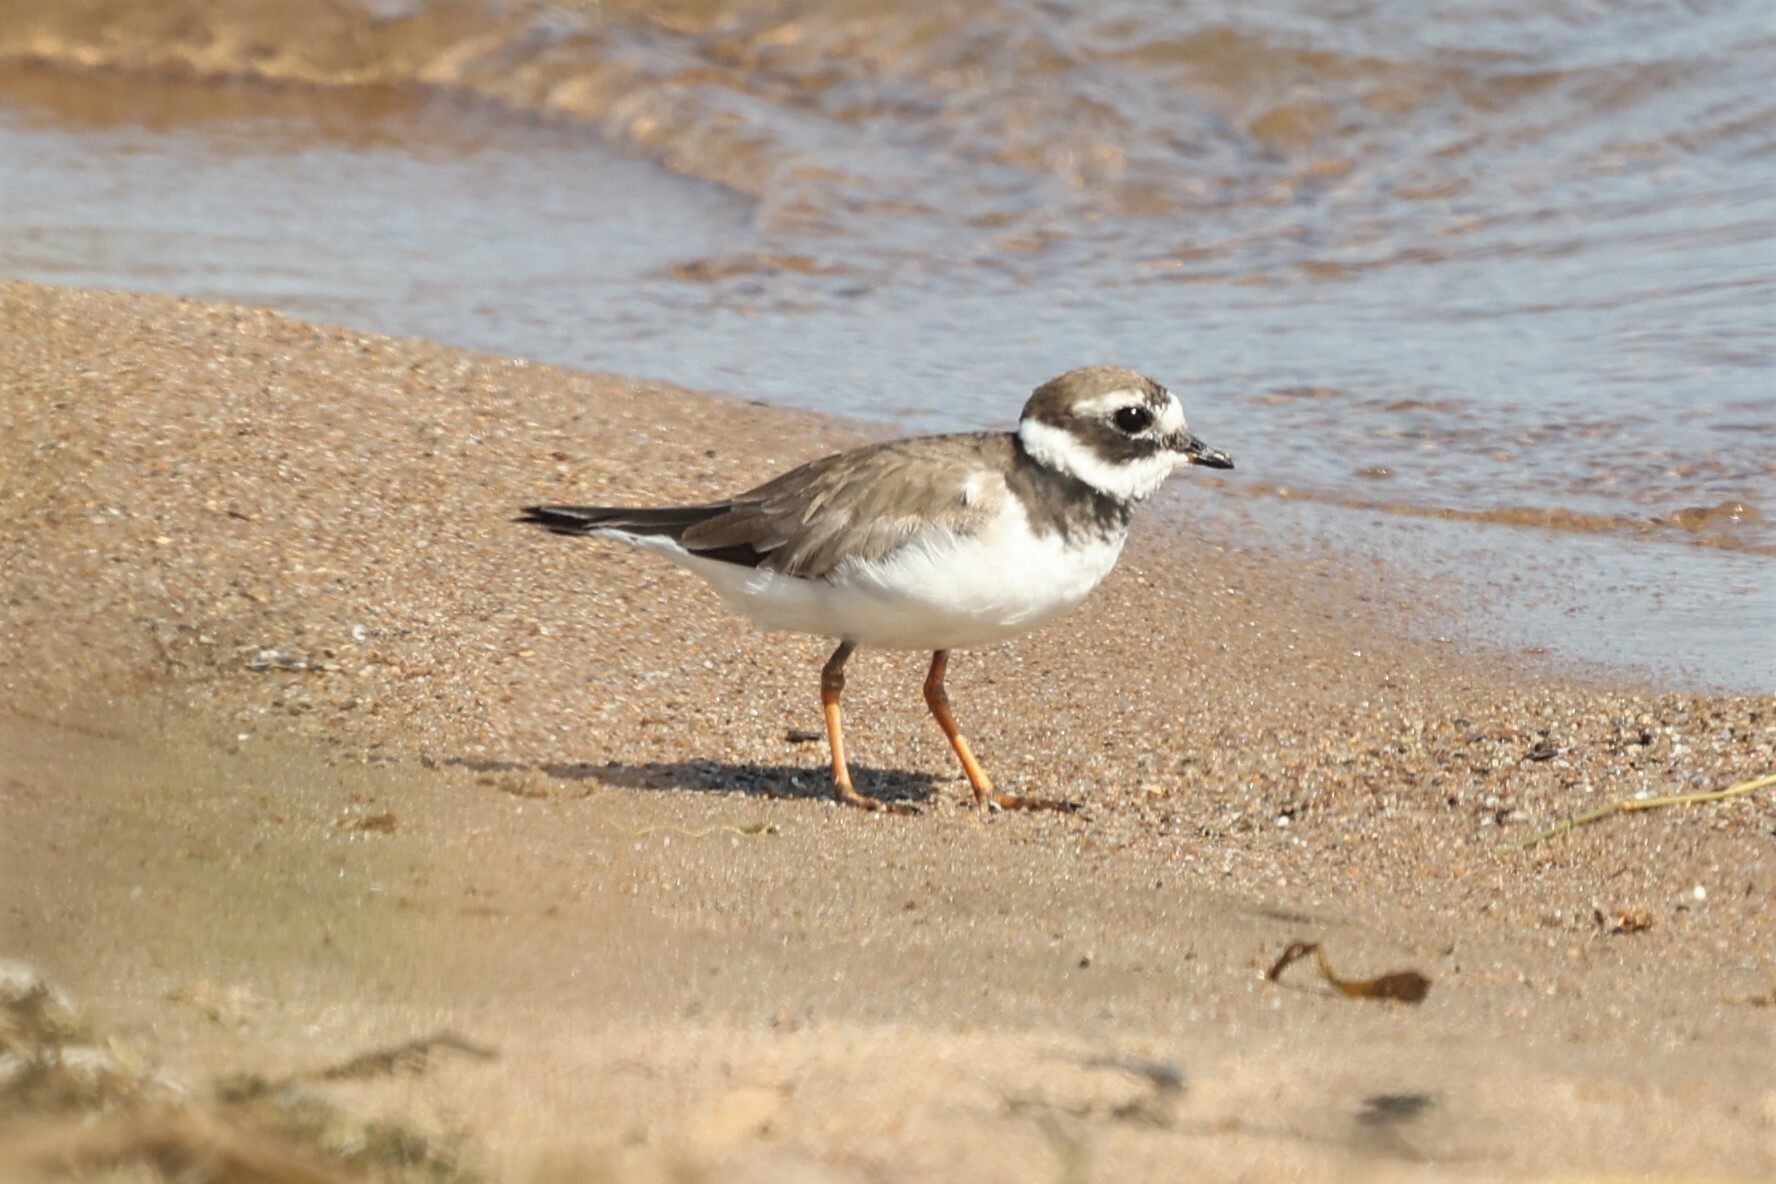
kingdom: Animalia
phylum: Chordata
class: Aves
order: Charadriiformes
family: Charadriidae
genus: Charadrius
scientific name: Charadrius hiaticula
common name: Common ringed plover
